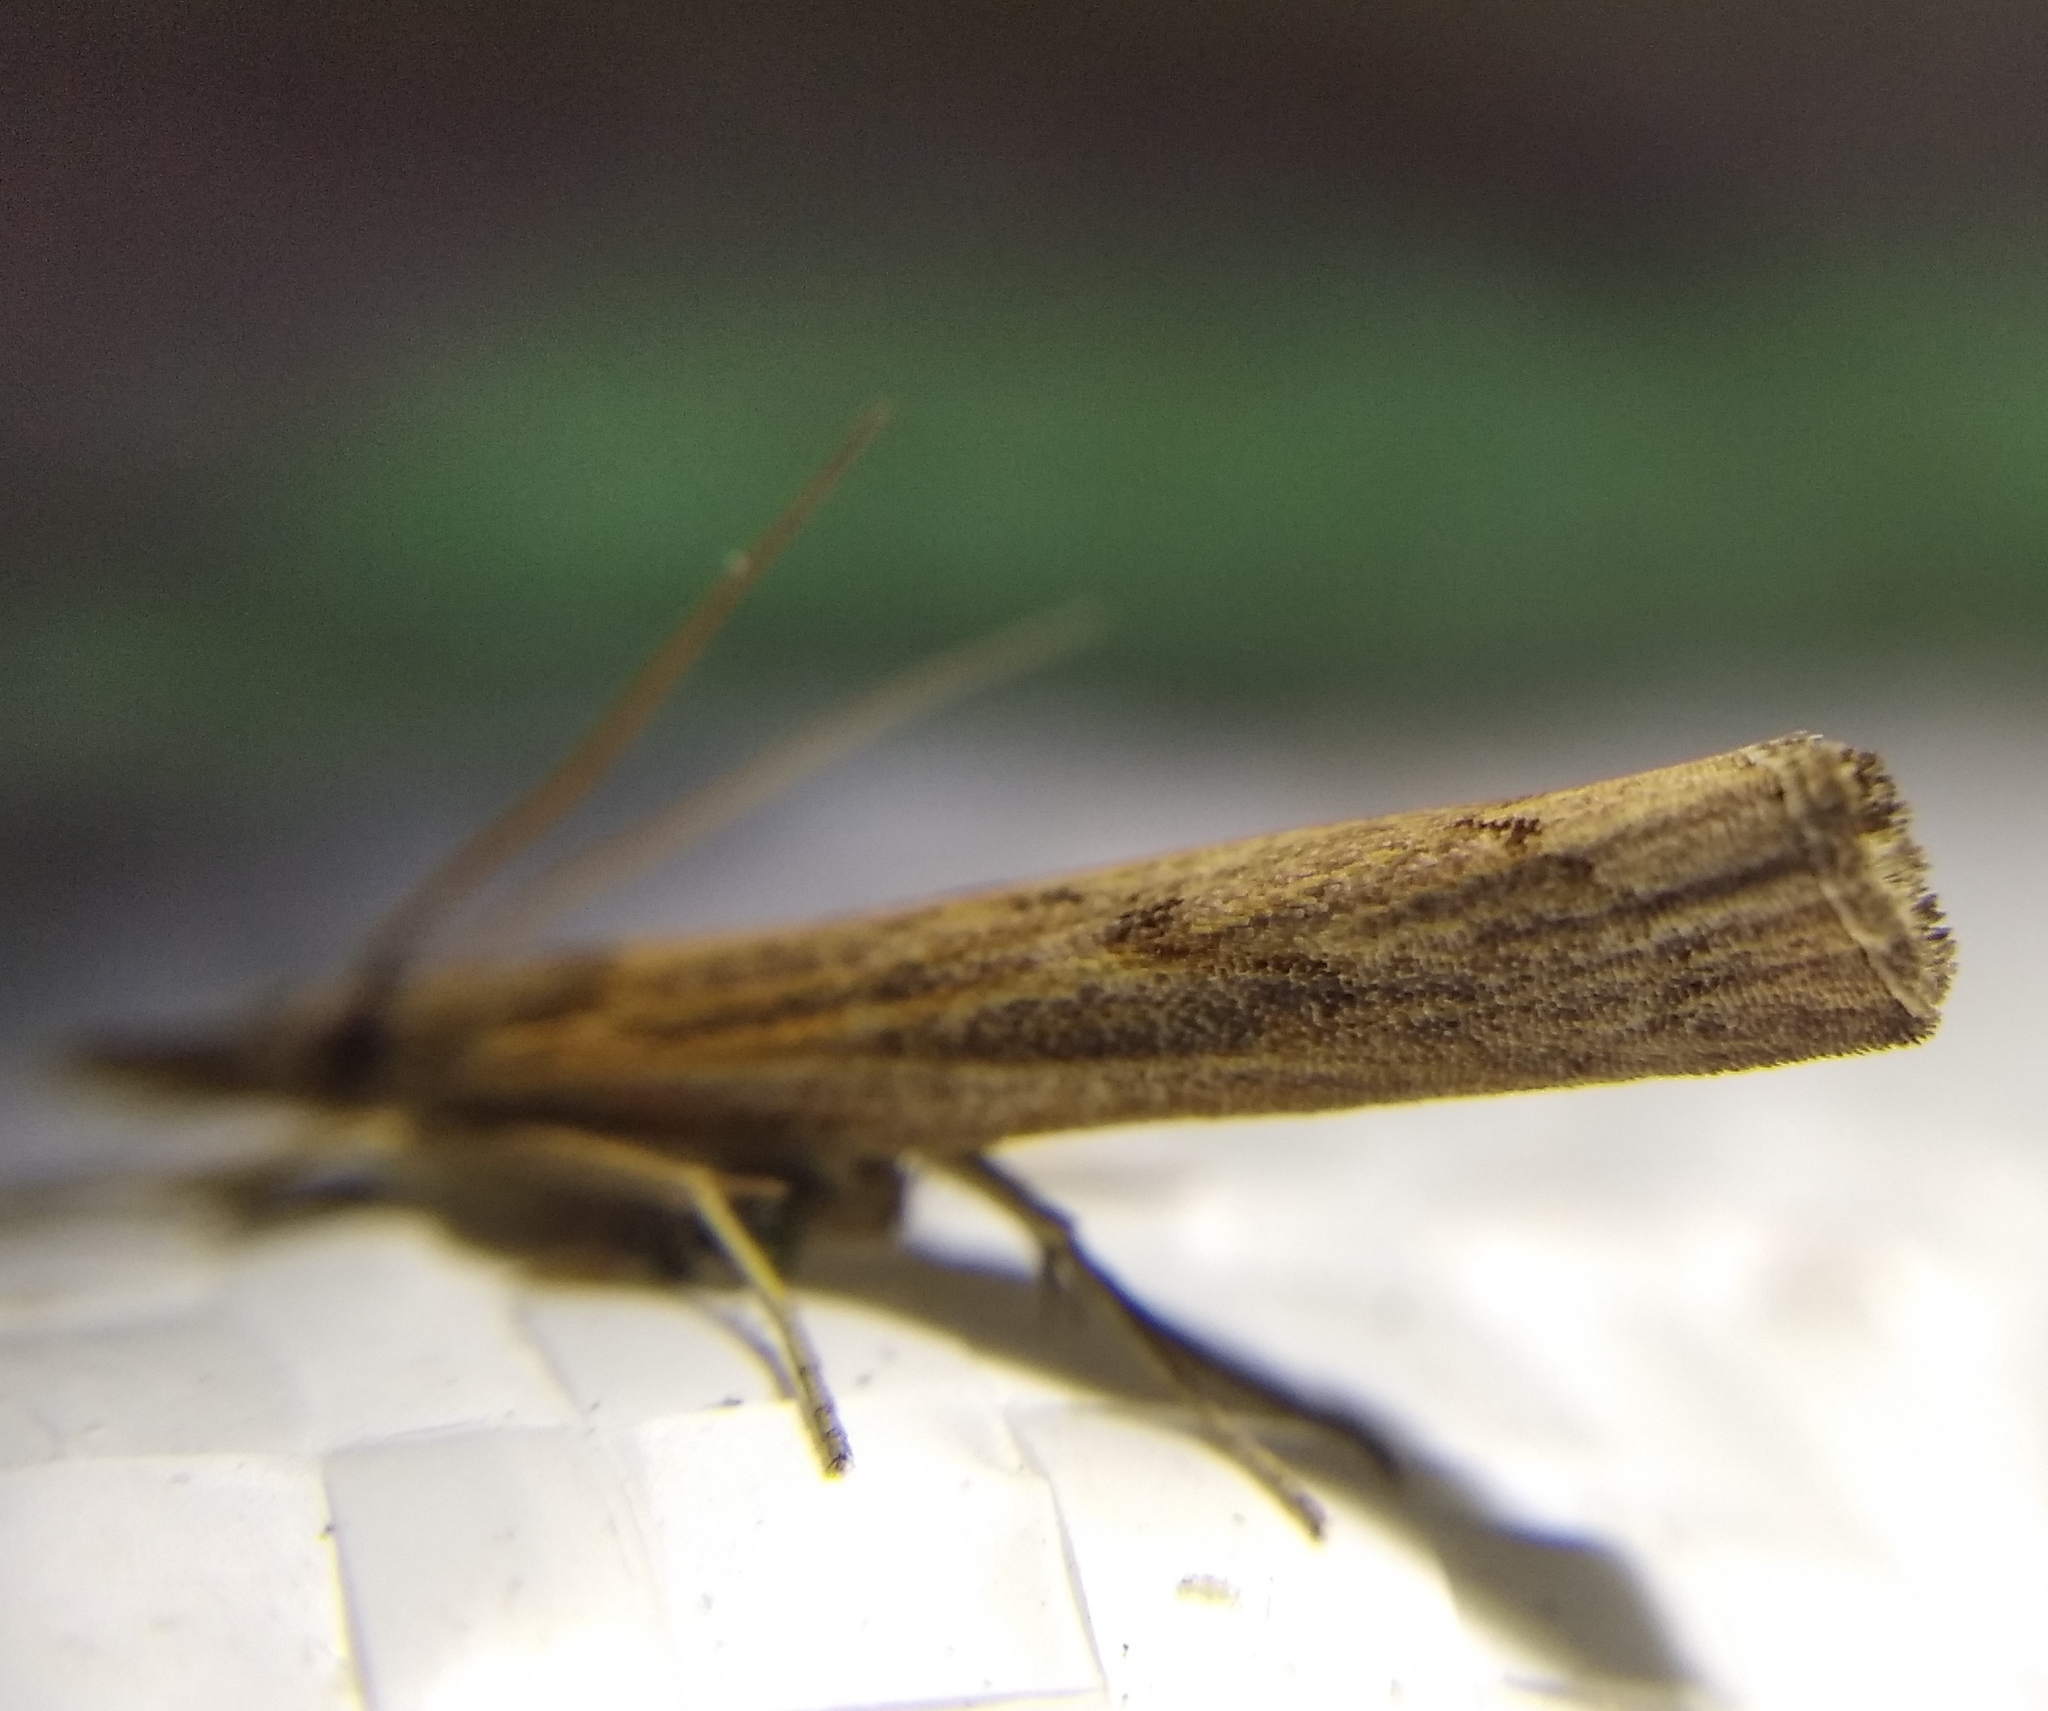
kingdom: Animalia
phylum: Arthropoda
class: Insecta
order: Lepidoptera
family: Crambidae
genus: Pediasia
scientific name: Pediasia contaminella
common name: Waste grass-veneer
